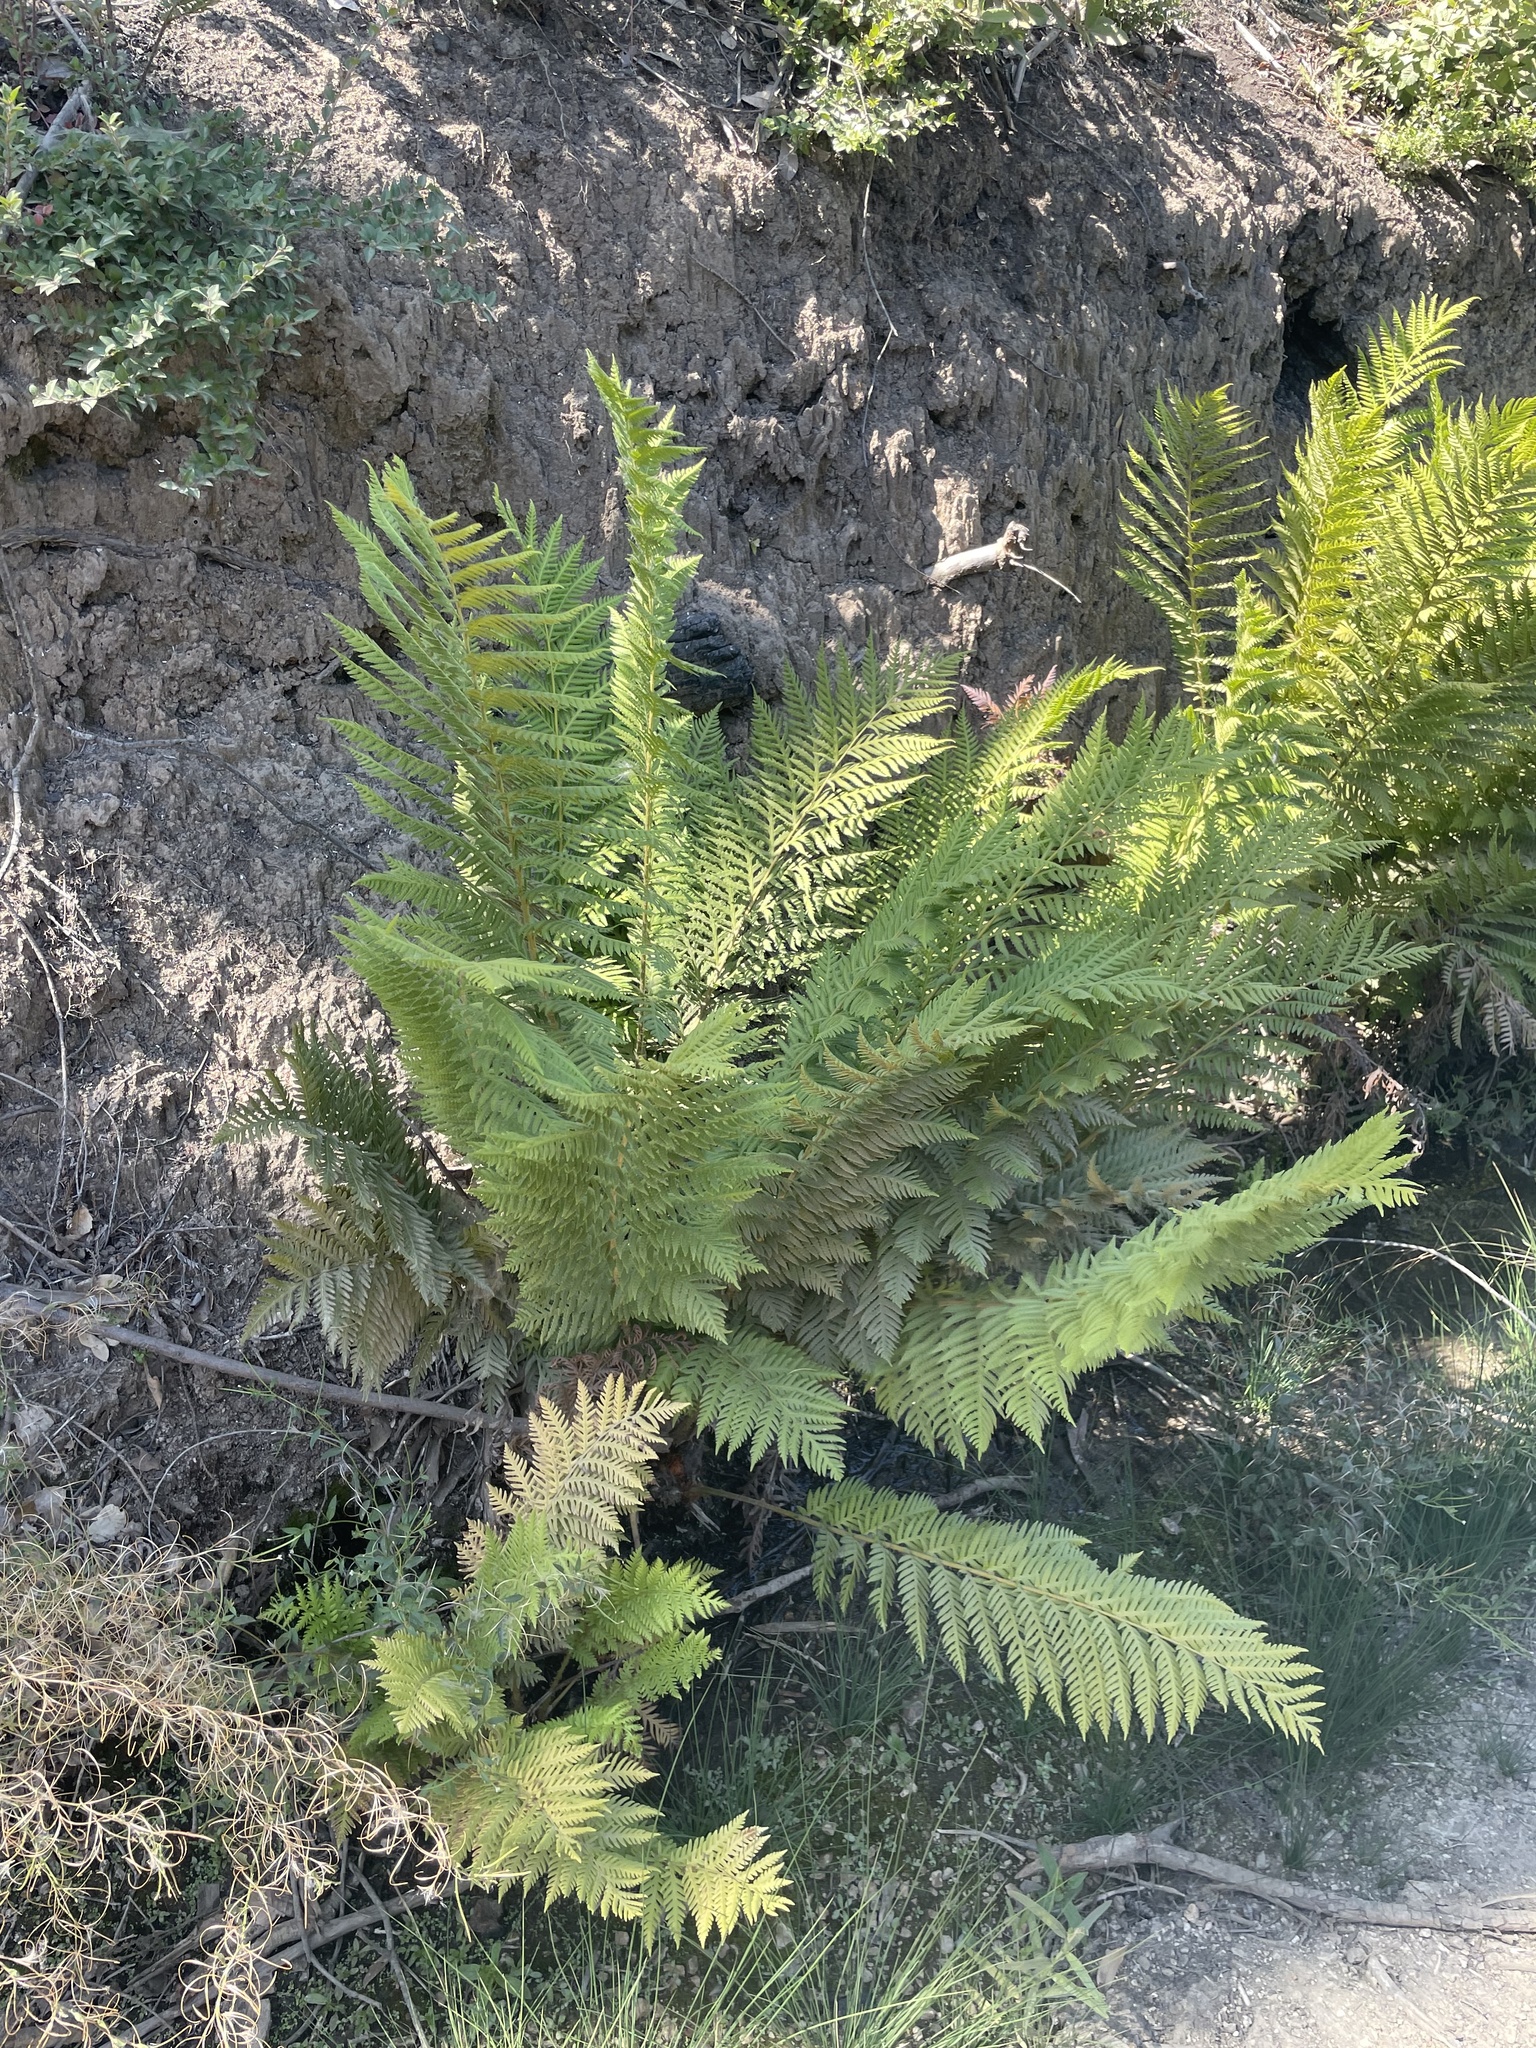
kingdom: Plantae
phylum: Tracheophyta
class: Polypodiopsida
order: Polypodiales
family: Blechnaceae
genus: Woodwardia
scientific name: Woodwardia fimbriata
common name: Giant chain fern
